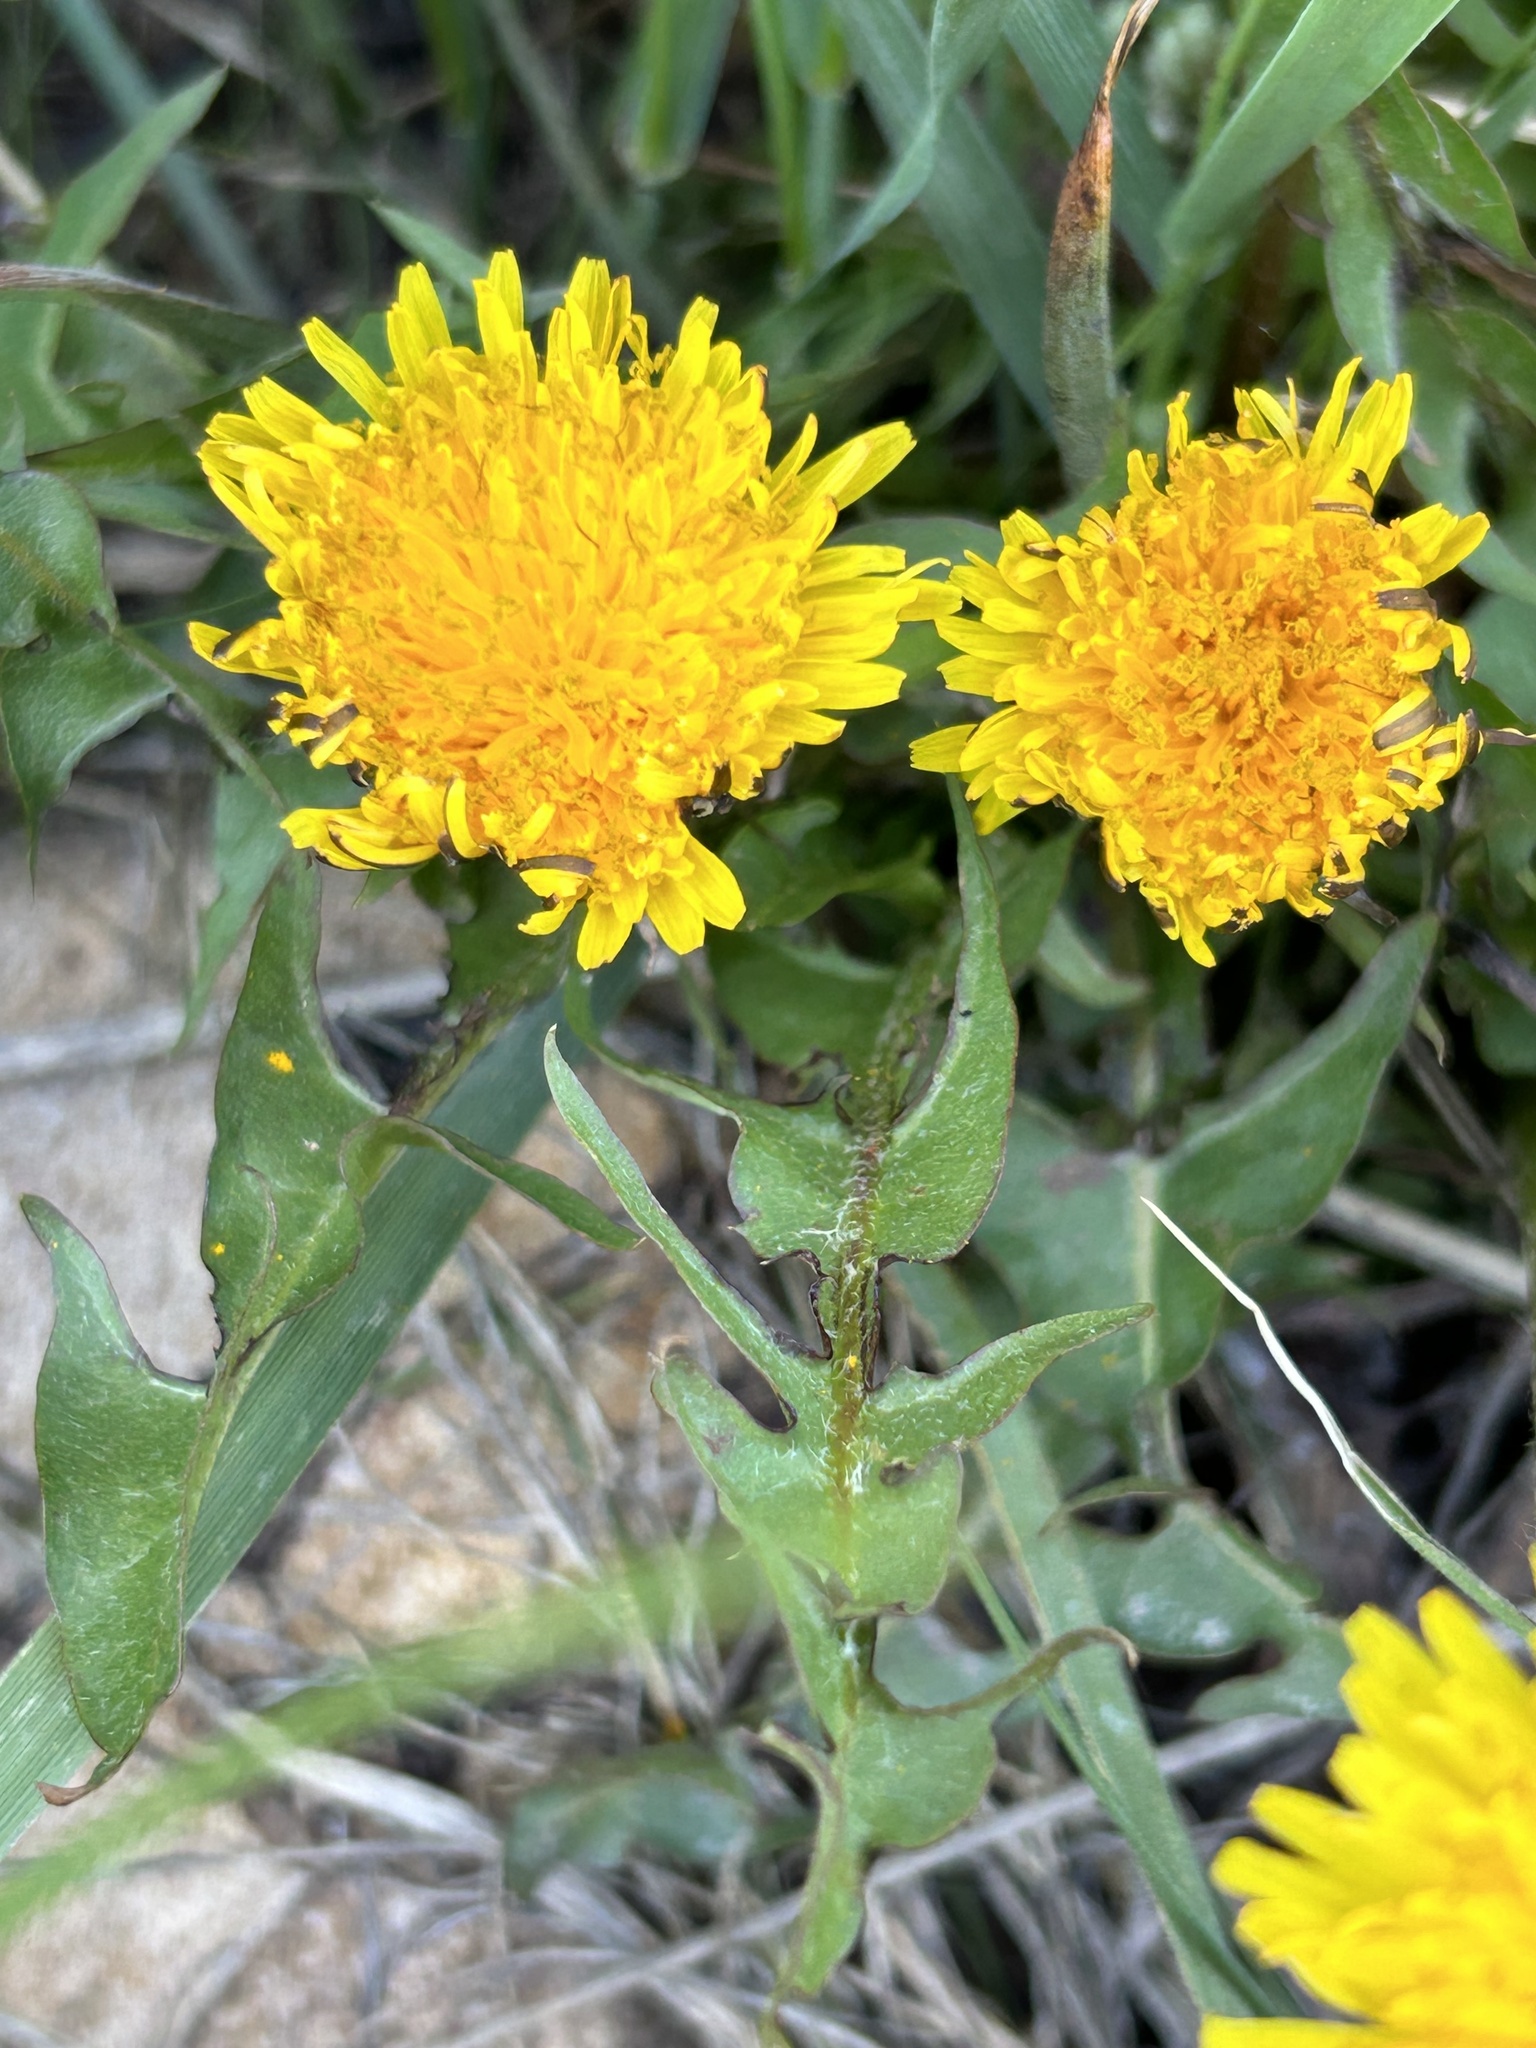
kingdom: Plantae
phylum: Tracheophyta
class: Magnoliopsida
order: Asterales
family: Asteraceae
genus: Taraxacum
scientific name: Taraxacum officinale
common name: Common dandelion
